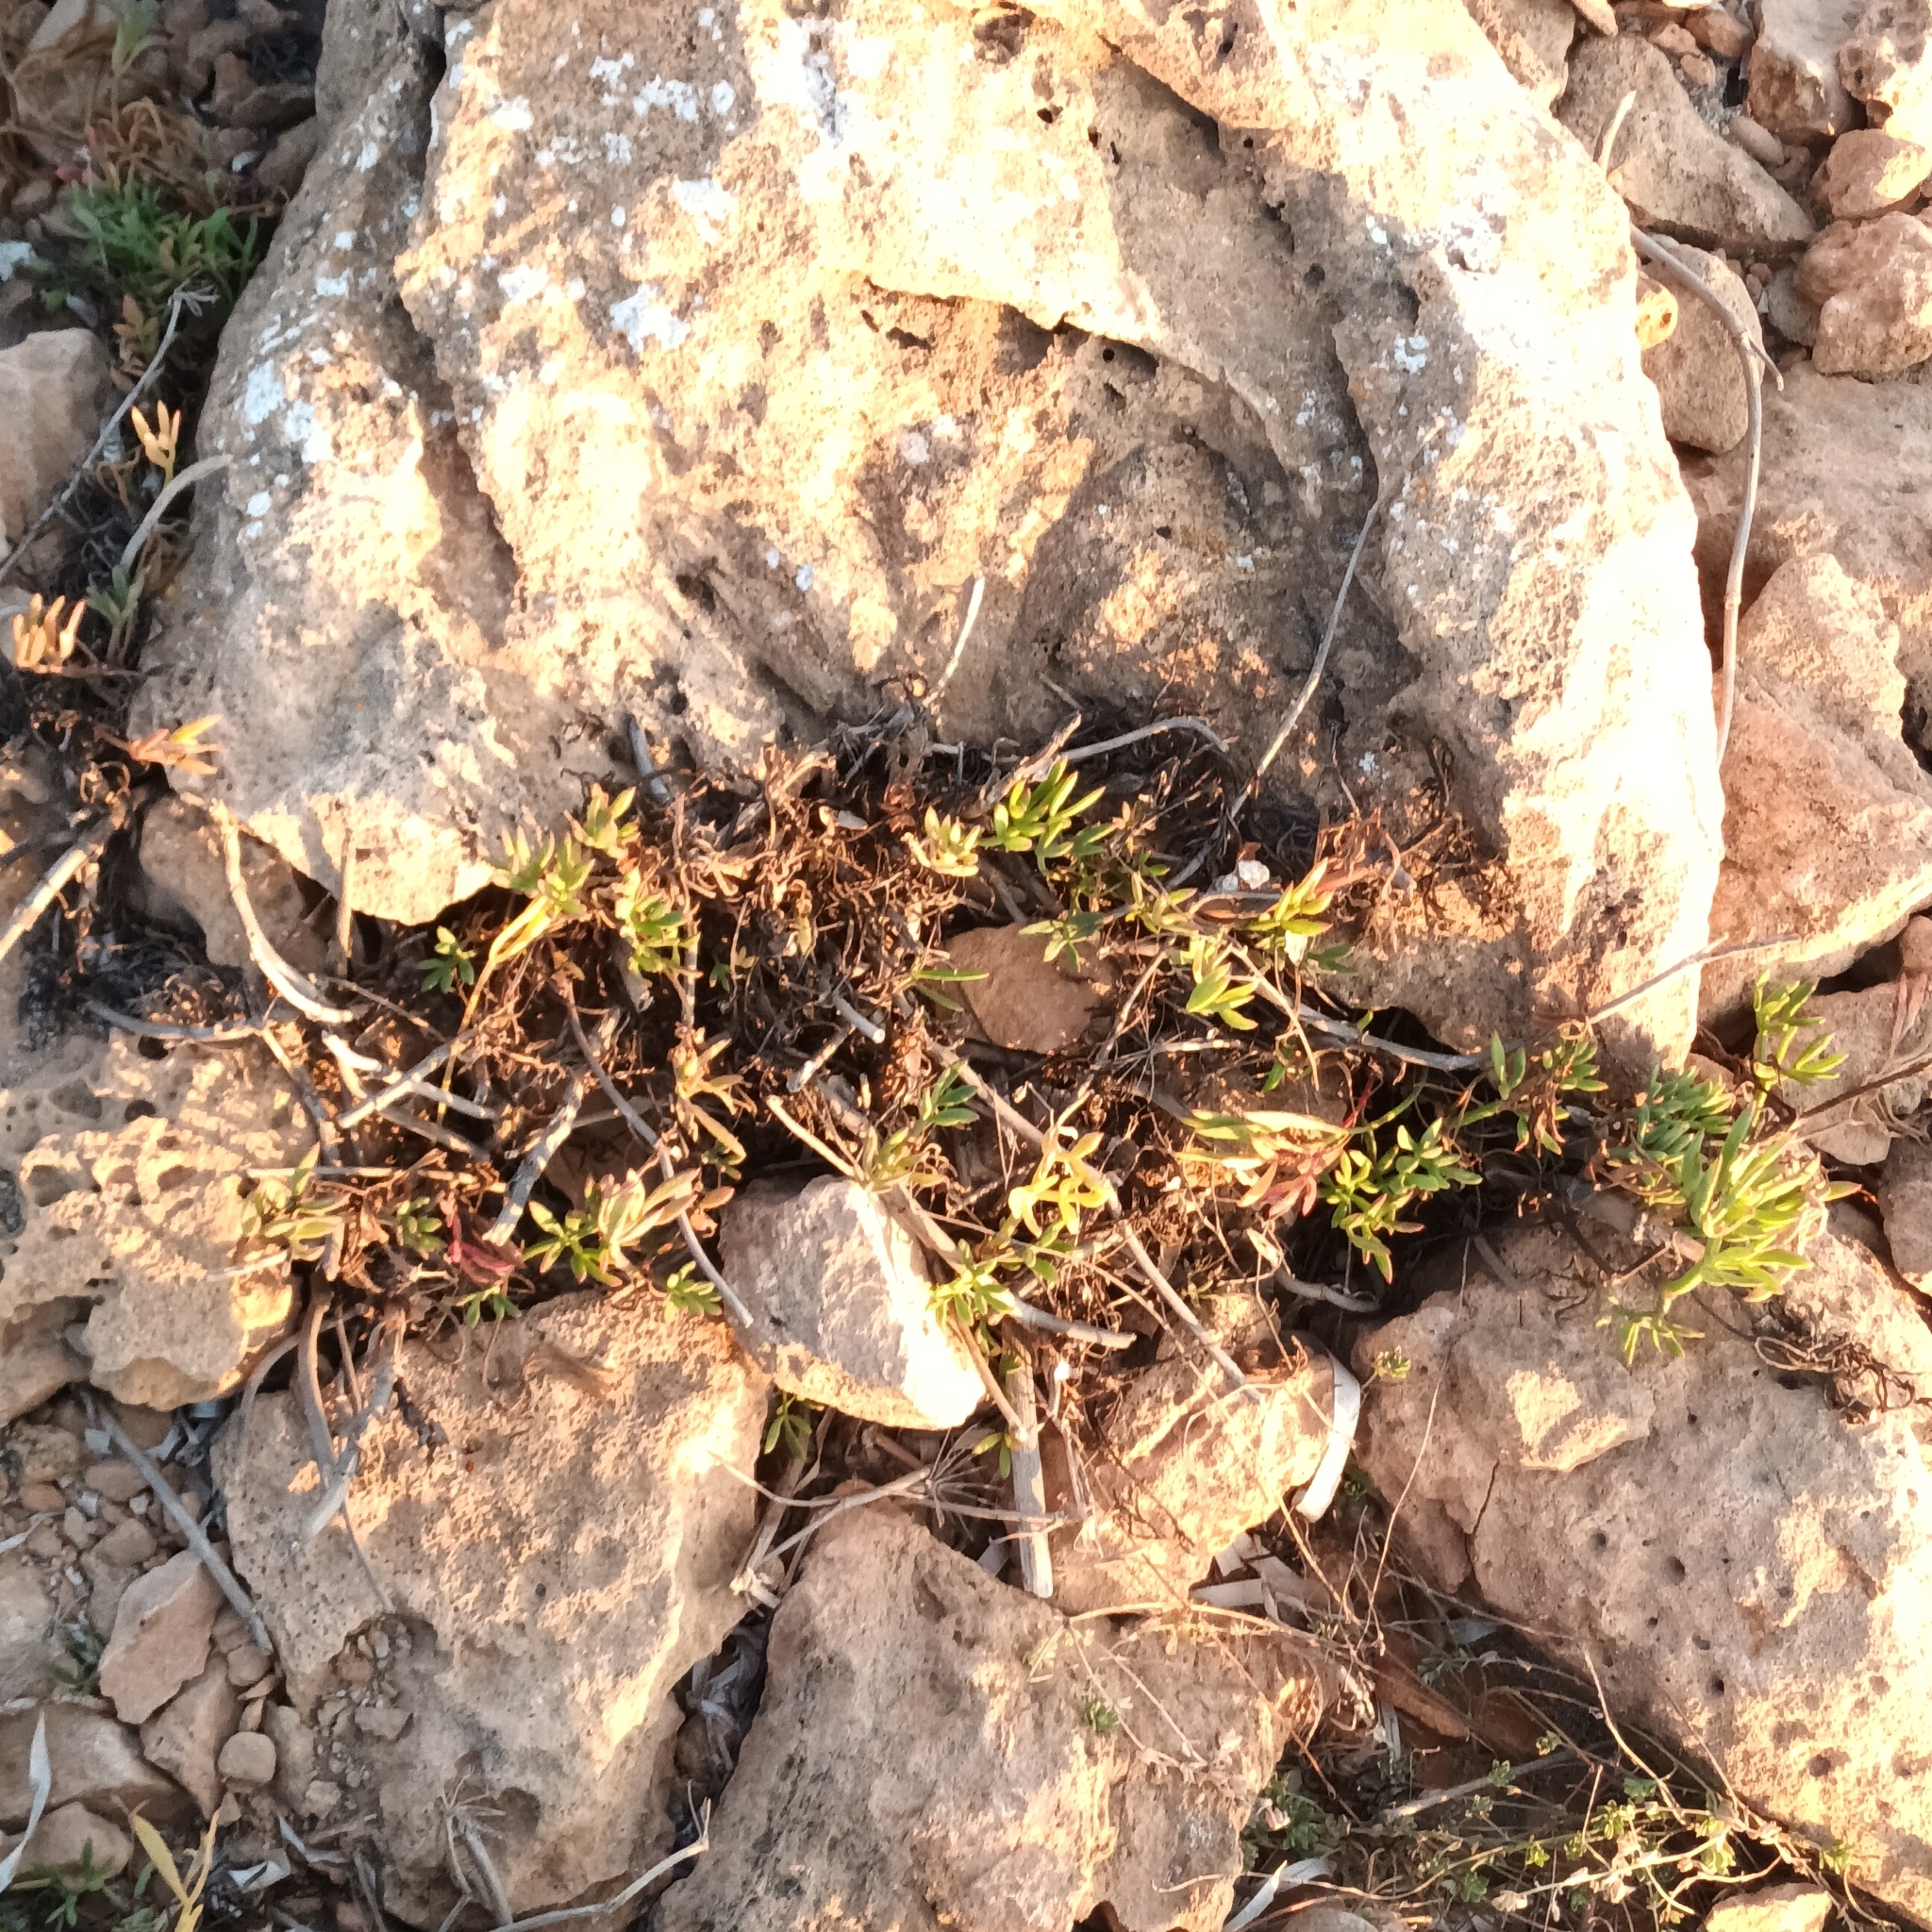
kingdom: Plantae
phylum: Tracheophyta
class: Magnoliopsida
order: Apiales
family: Apiaceae
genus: Crithmum
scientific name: Crithmum maritimum
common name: Rock samphire
